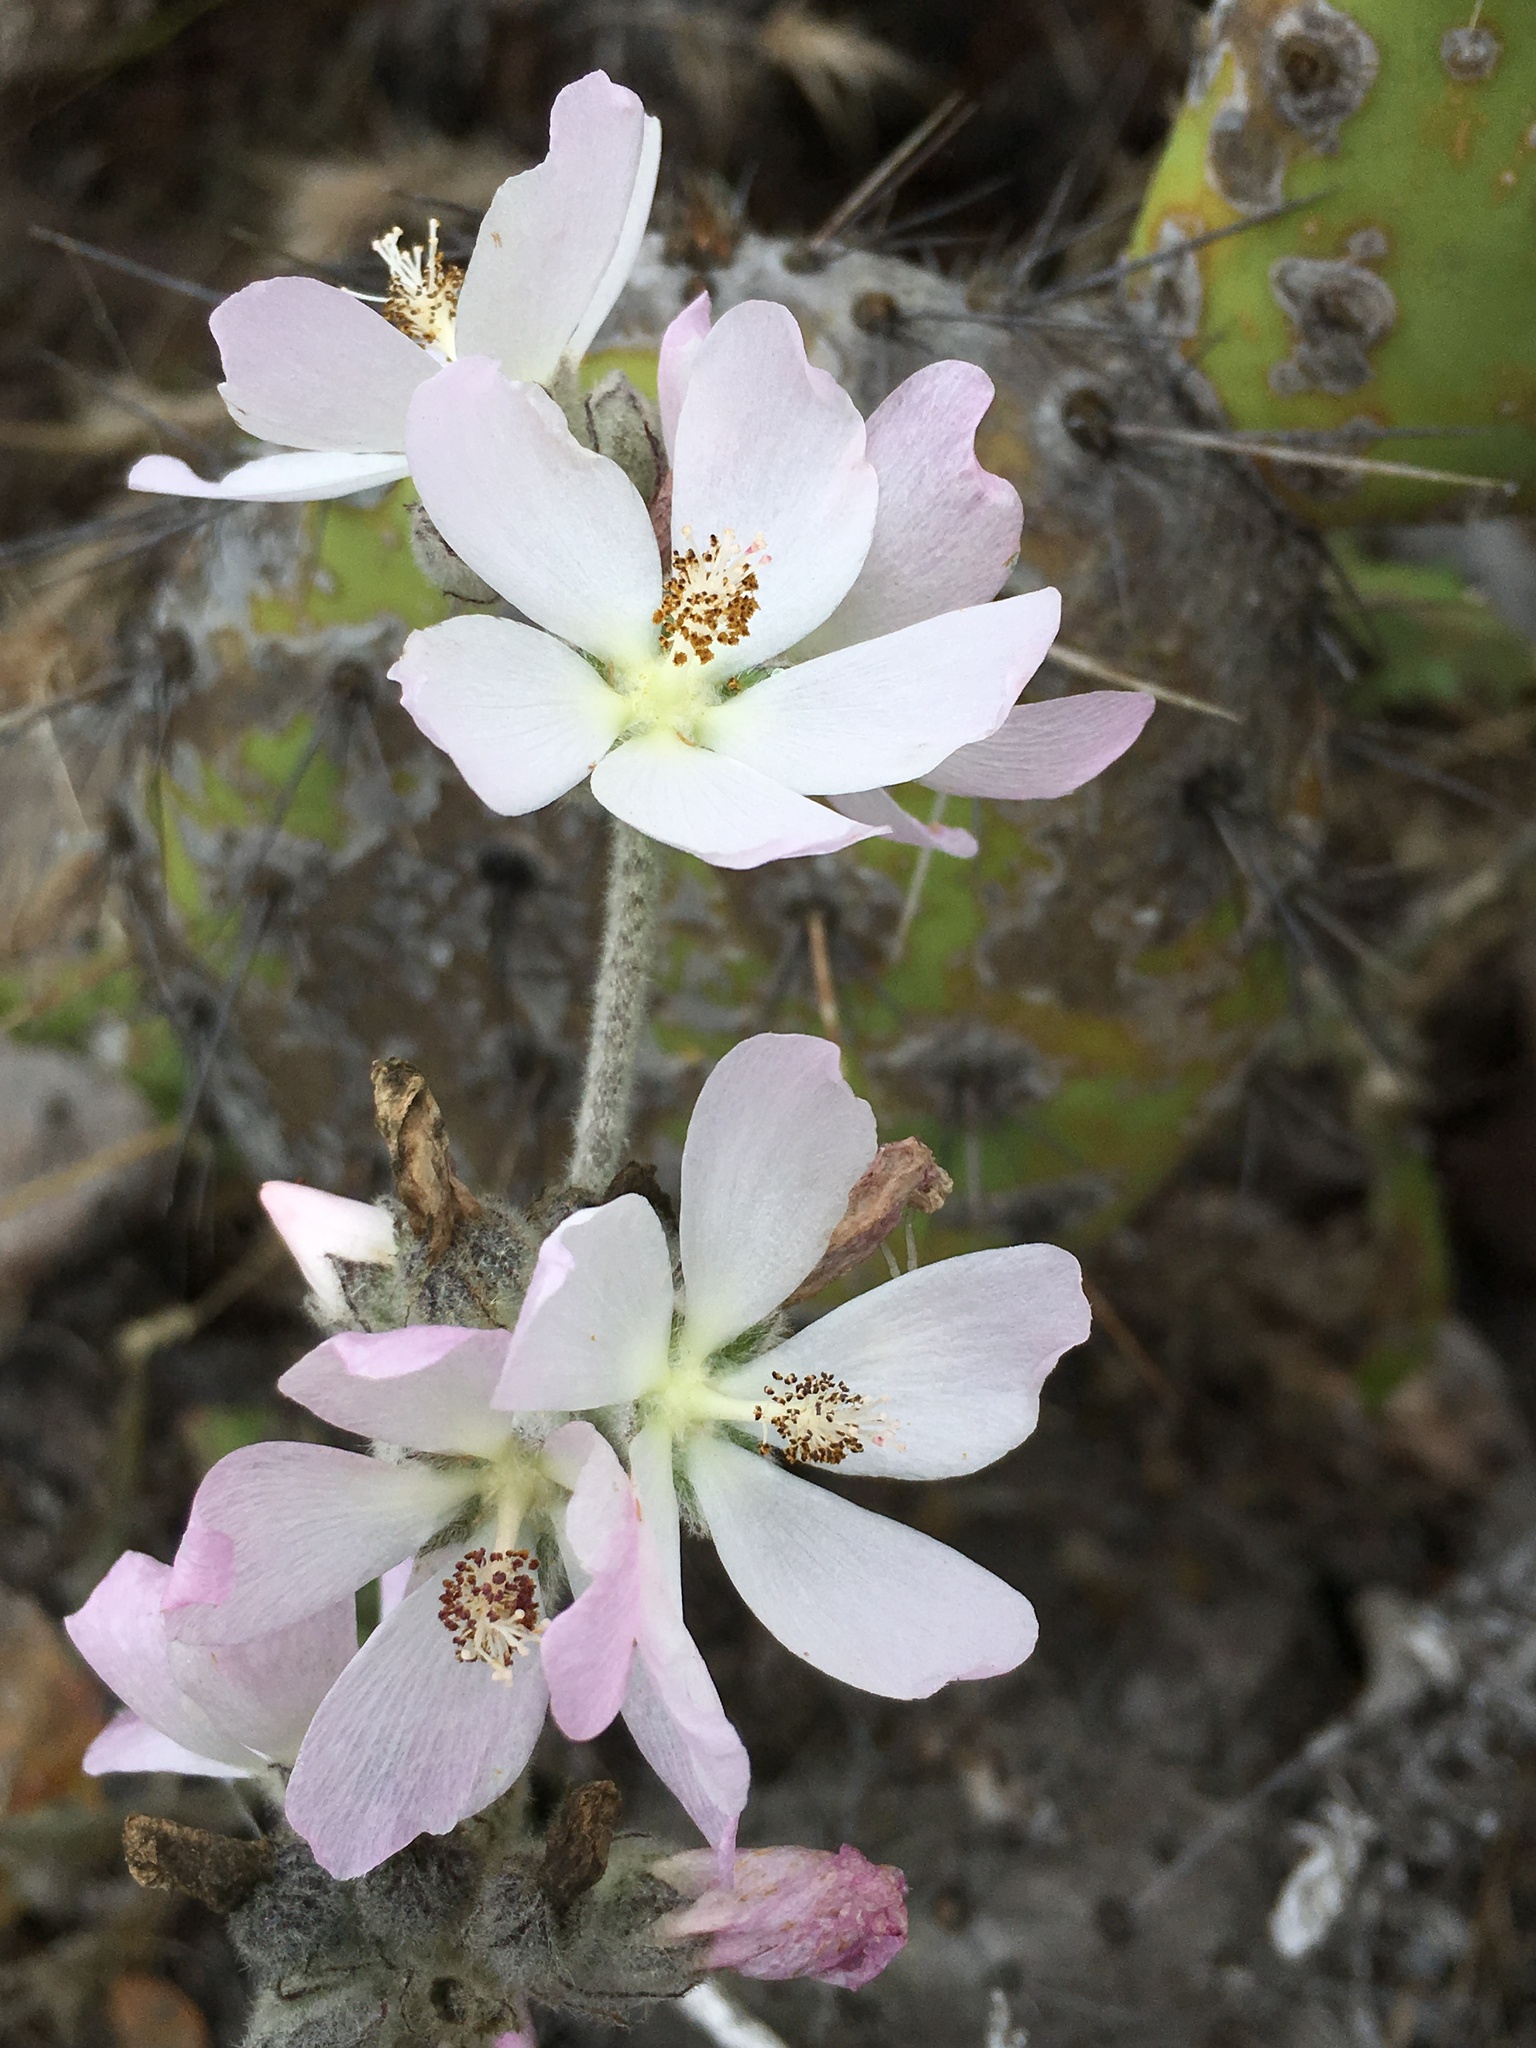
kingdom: Plantae
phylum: Tracheophyta
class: Magnoliopsida
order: Malvales
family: Malvaceae
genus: Malacothamnus
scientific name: Malacothamnus clementinus
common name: San clemente island bush-mallow
